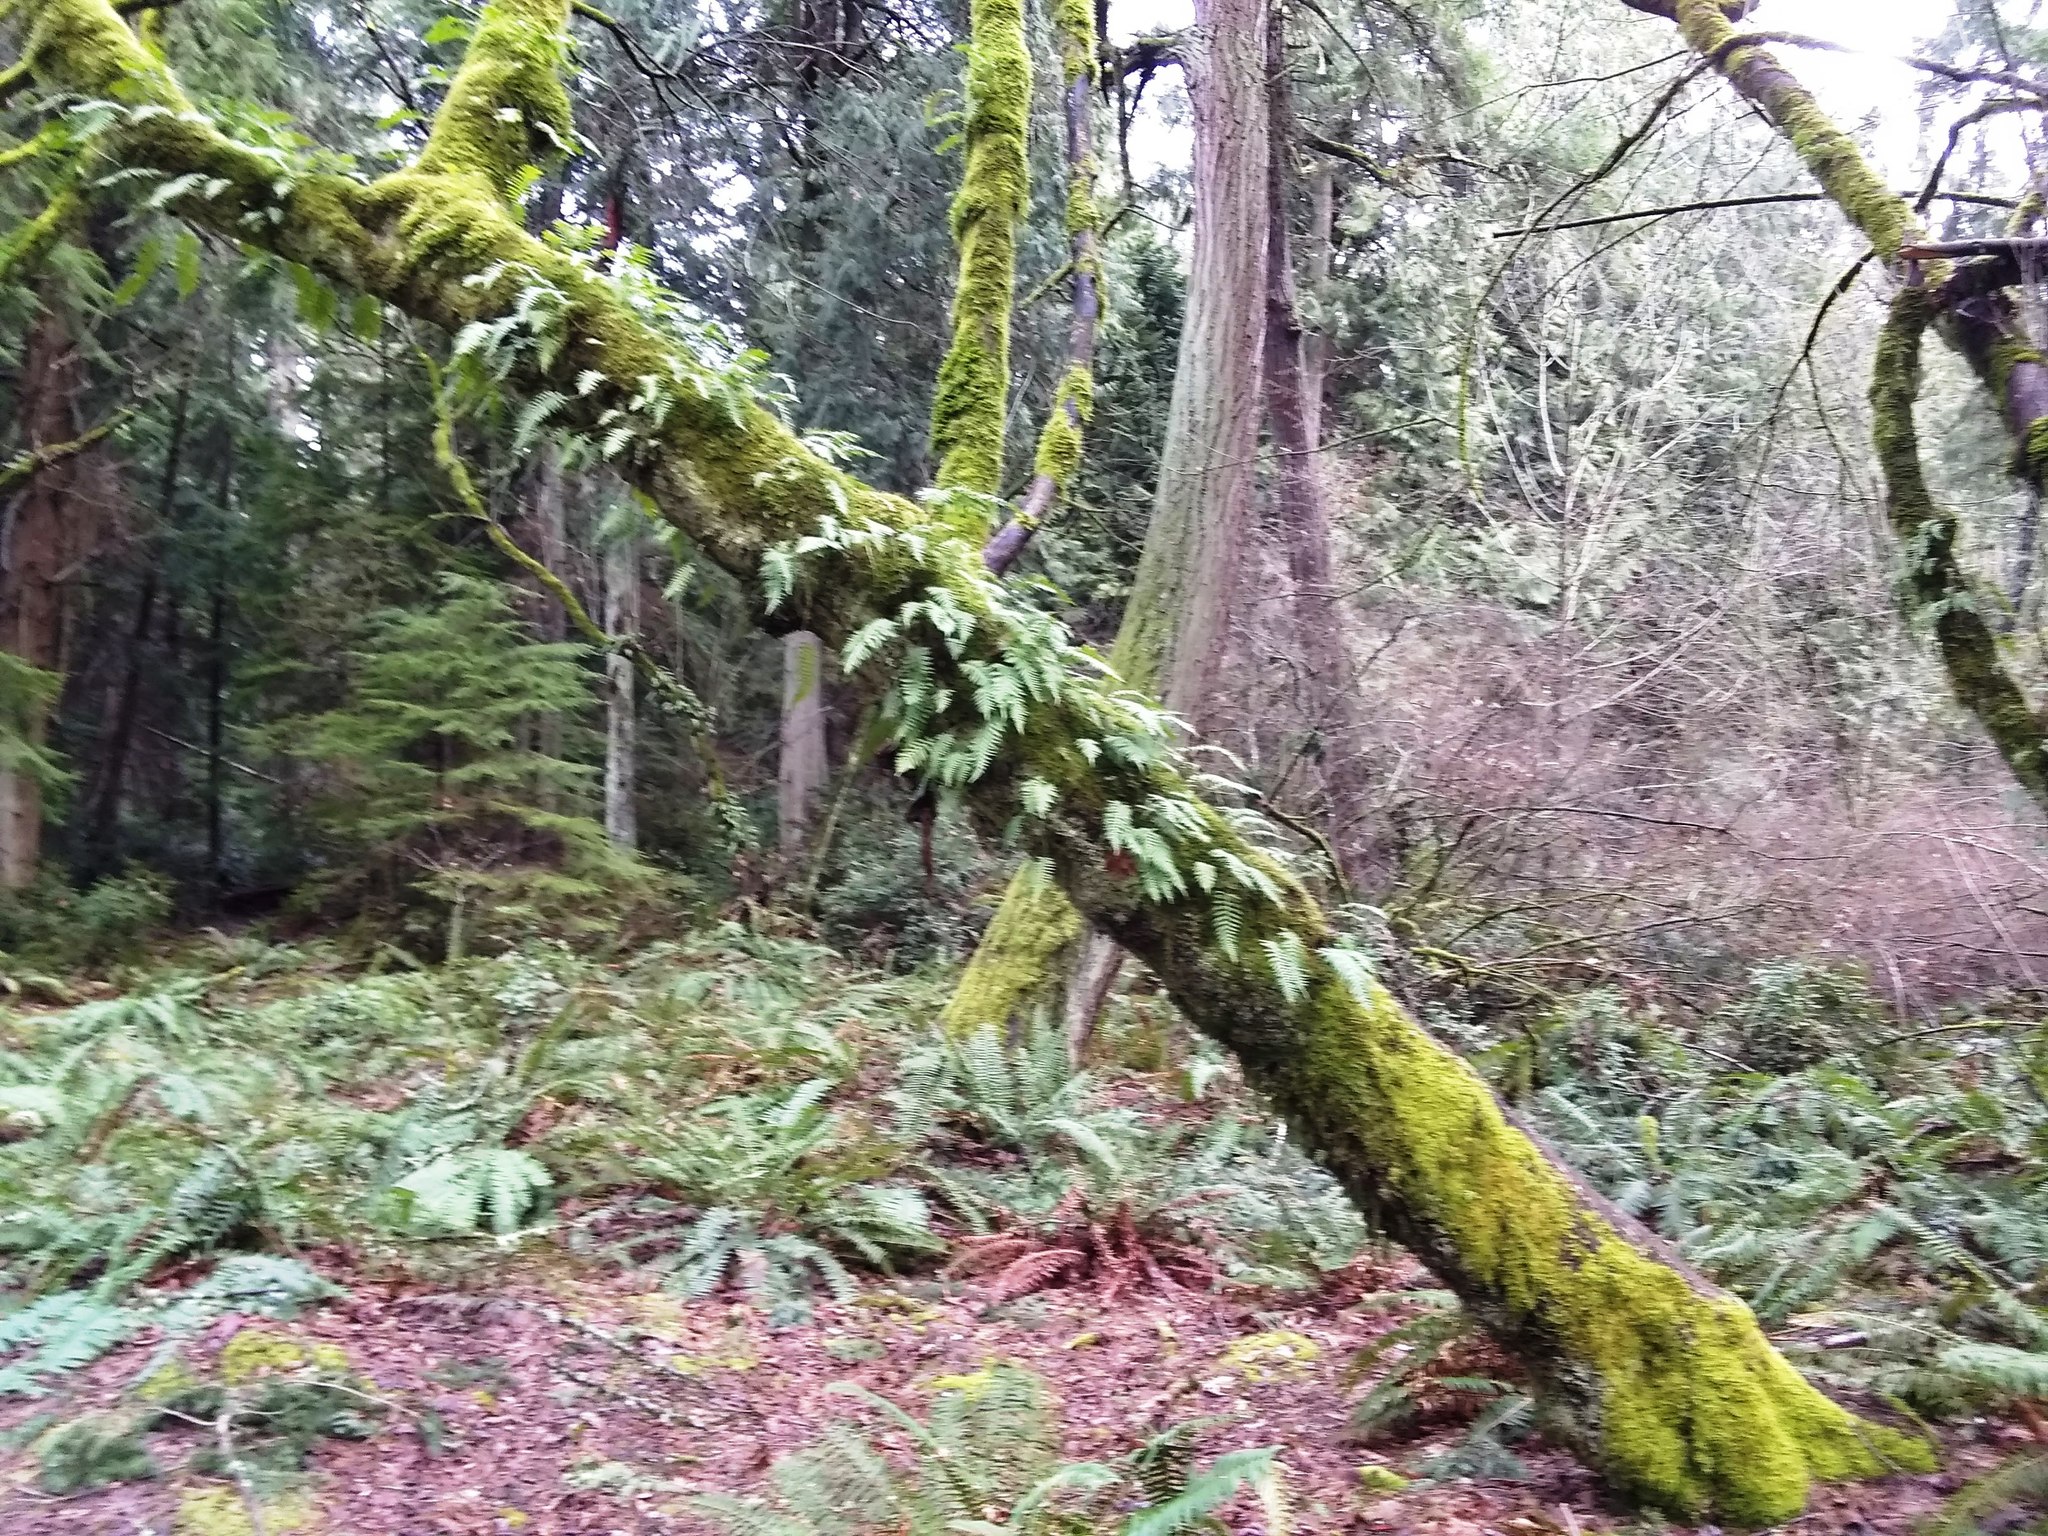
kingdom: Plantae
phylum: Tracheophyta
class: Polypodiopsida
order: Polypodiales
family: Polypodiaceae
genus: Polypodium
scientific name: Polypodium glycyrrhiza
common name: Licorice fern
